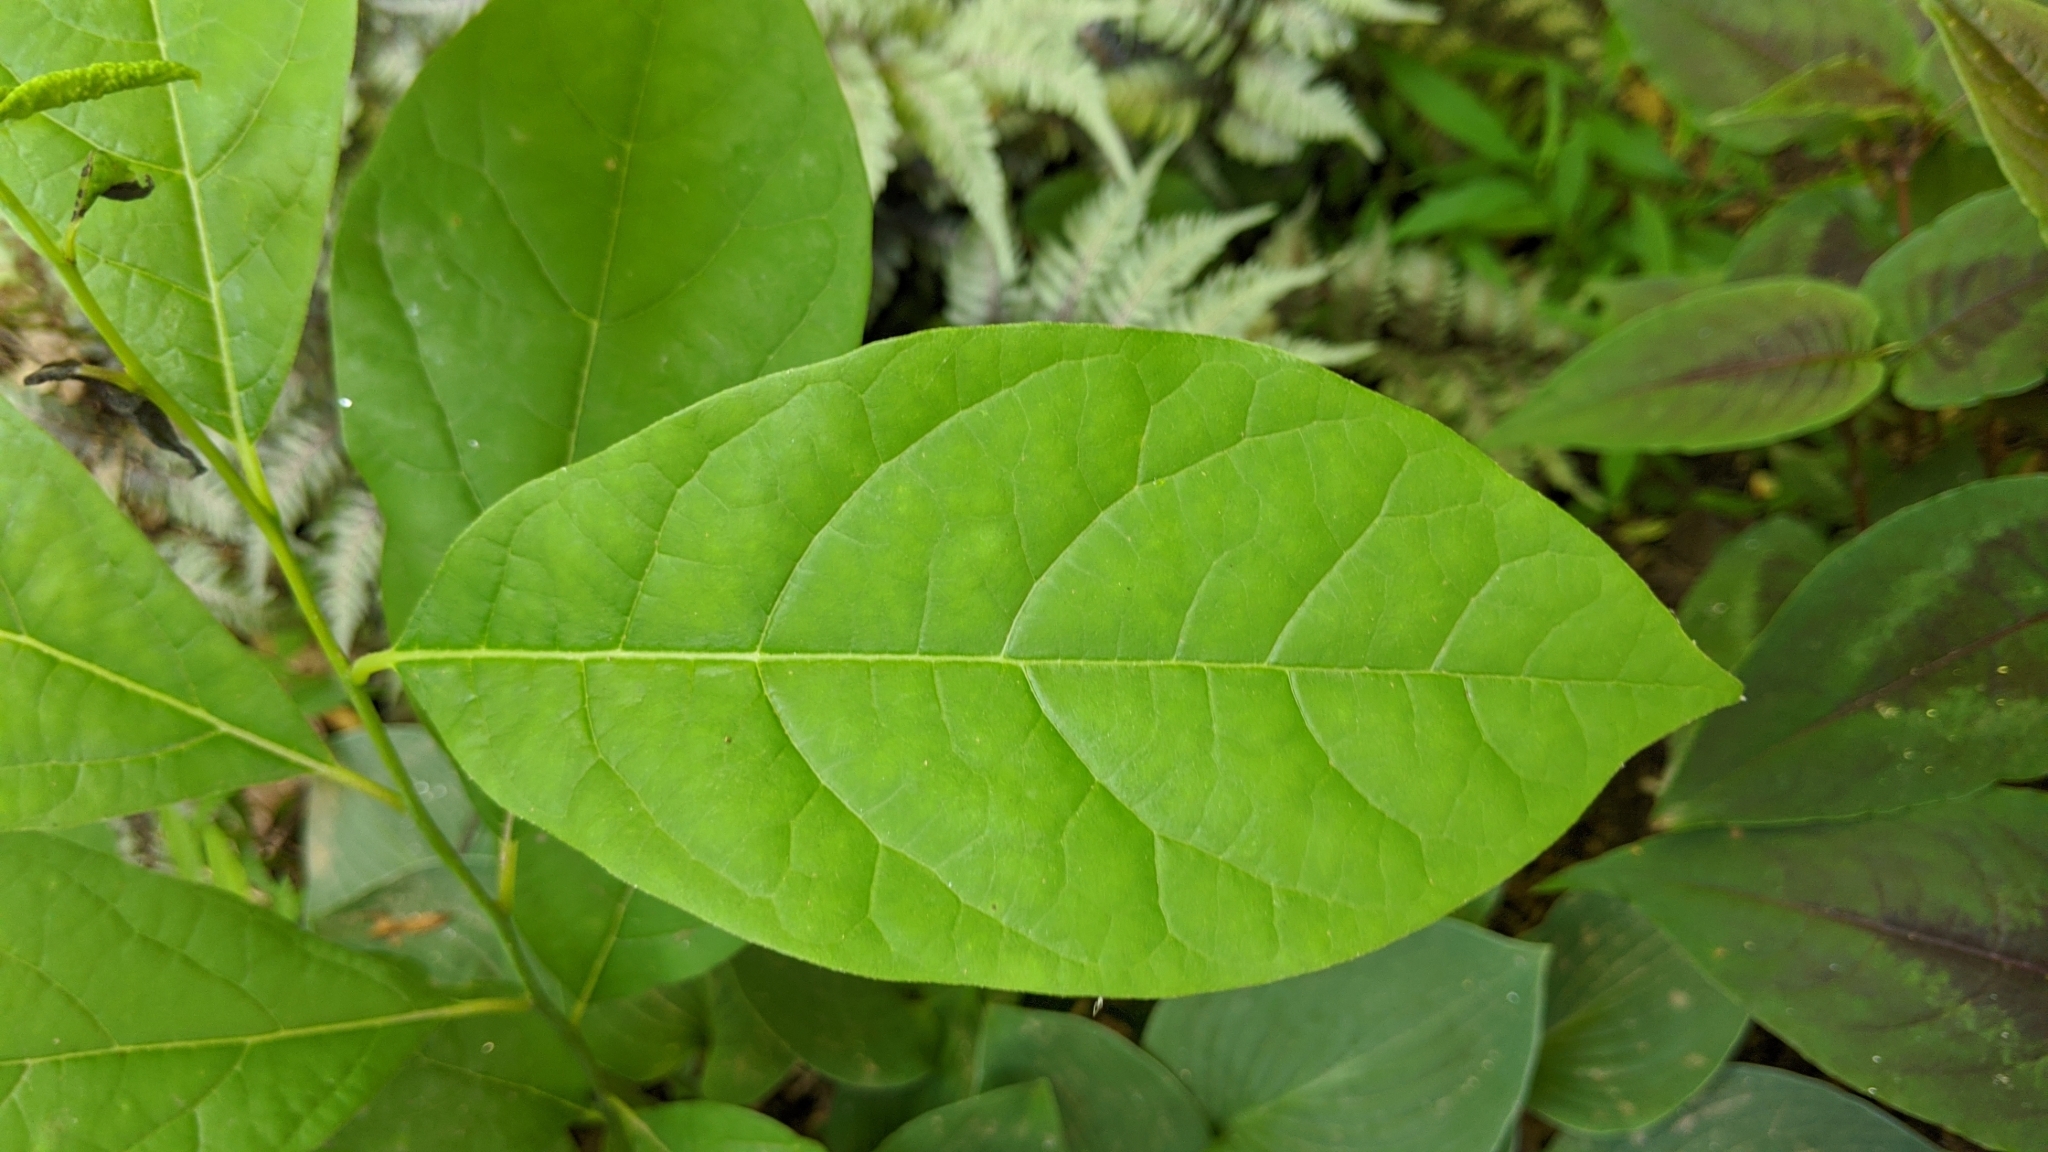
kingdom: Plantae
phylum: Tracheophyta
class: Magnoliopsida
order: Laurales
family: Lauraceae
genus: Lindera
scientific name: Lindera benzoin
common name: Spicebush
